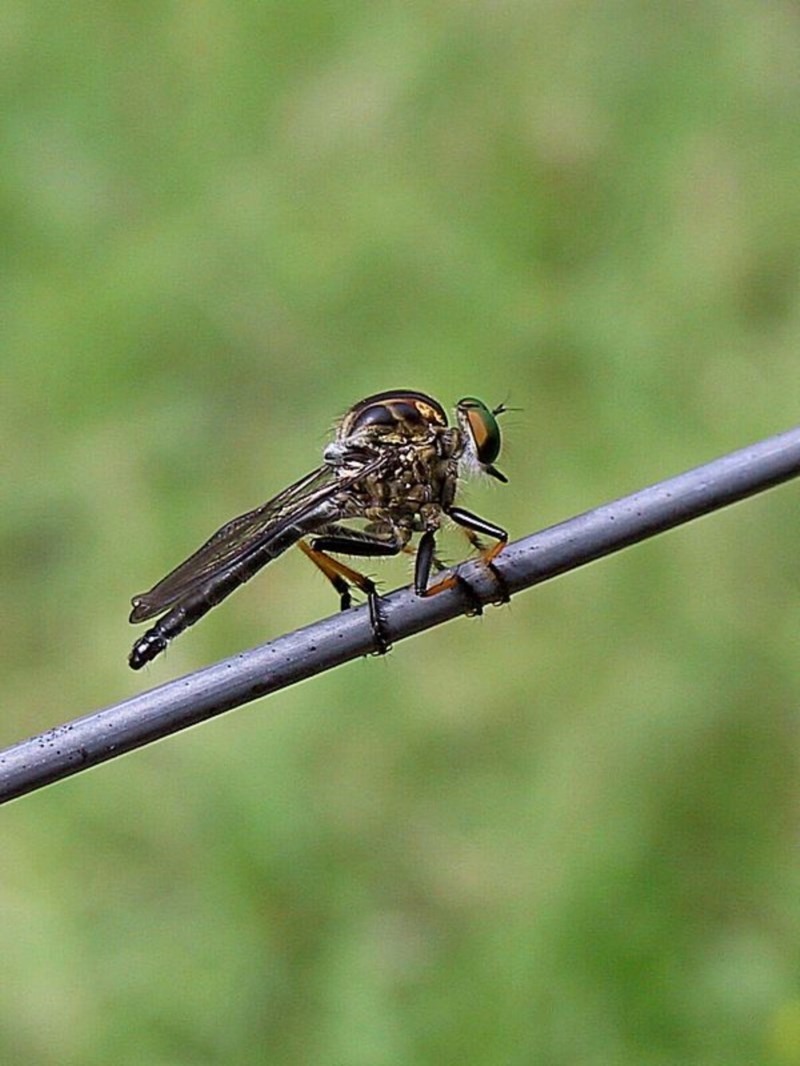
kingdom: Animalia
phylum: Arthropoda
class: Insecta
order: Diptera
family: Asilidae
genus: Ommatius
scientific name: Ommatius coeraebus
